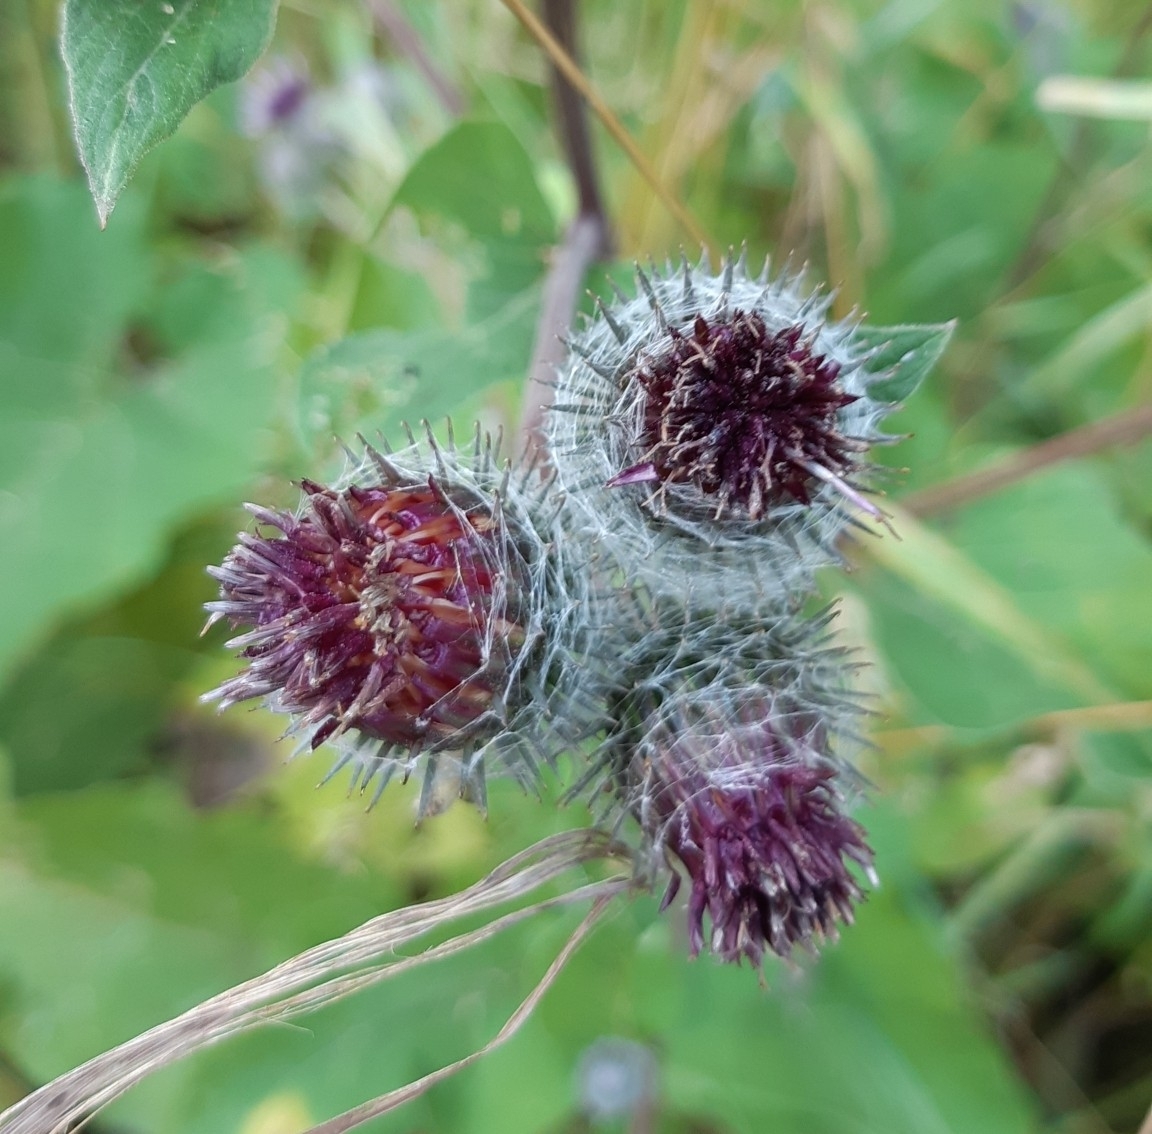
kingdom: Plantae
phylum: Tracheophyta
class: Magnoliopsida
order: Asterales
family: Asteraceae
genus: Arctium
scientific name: Arctium tomentosum
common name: Woolly burdock
